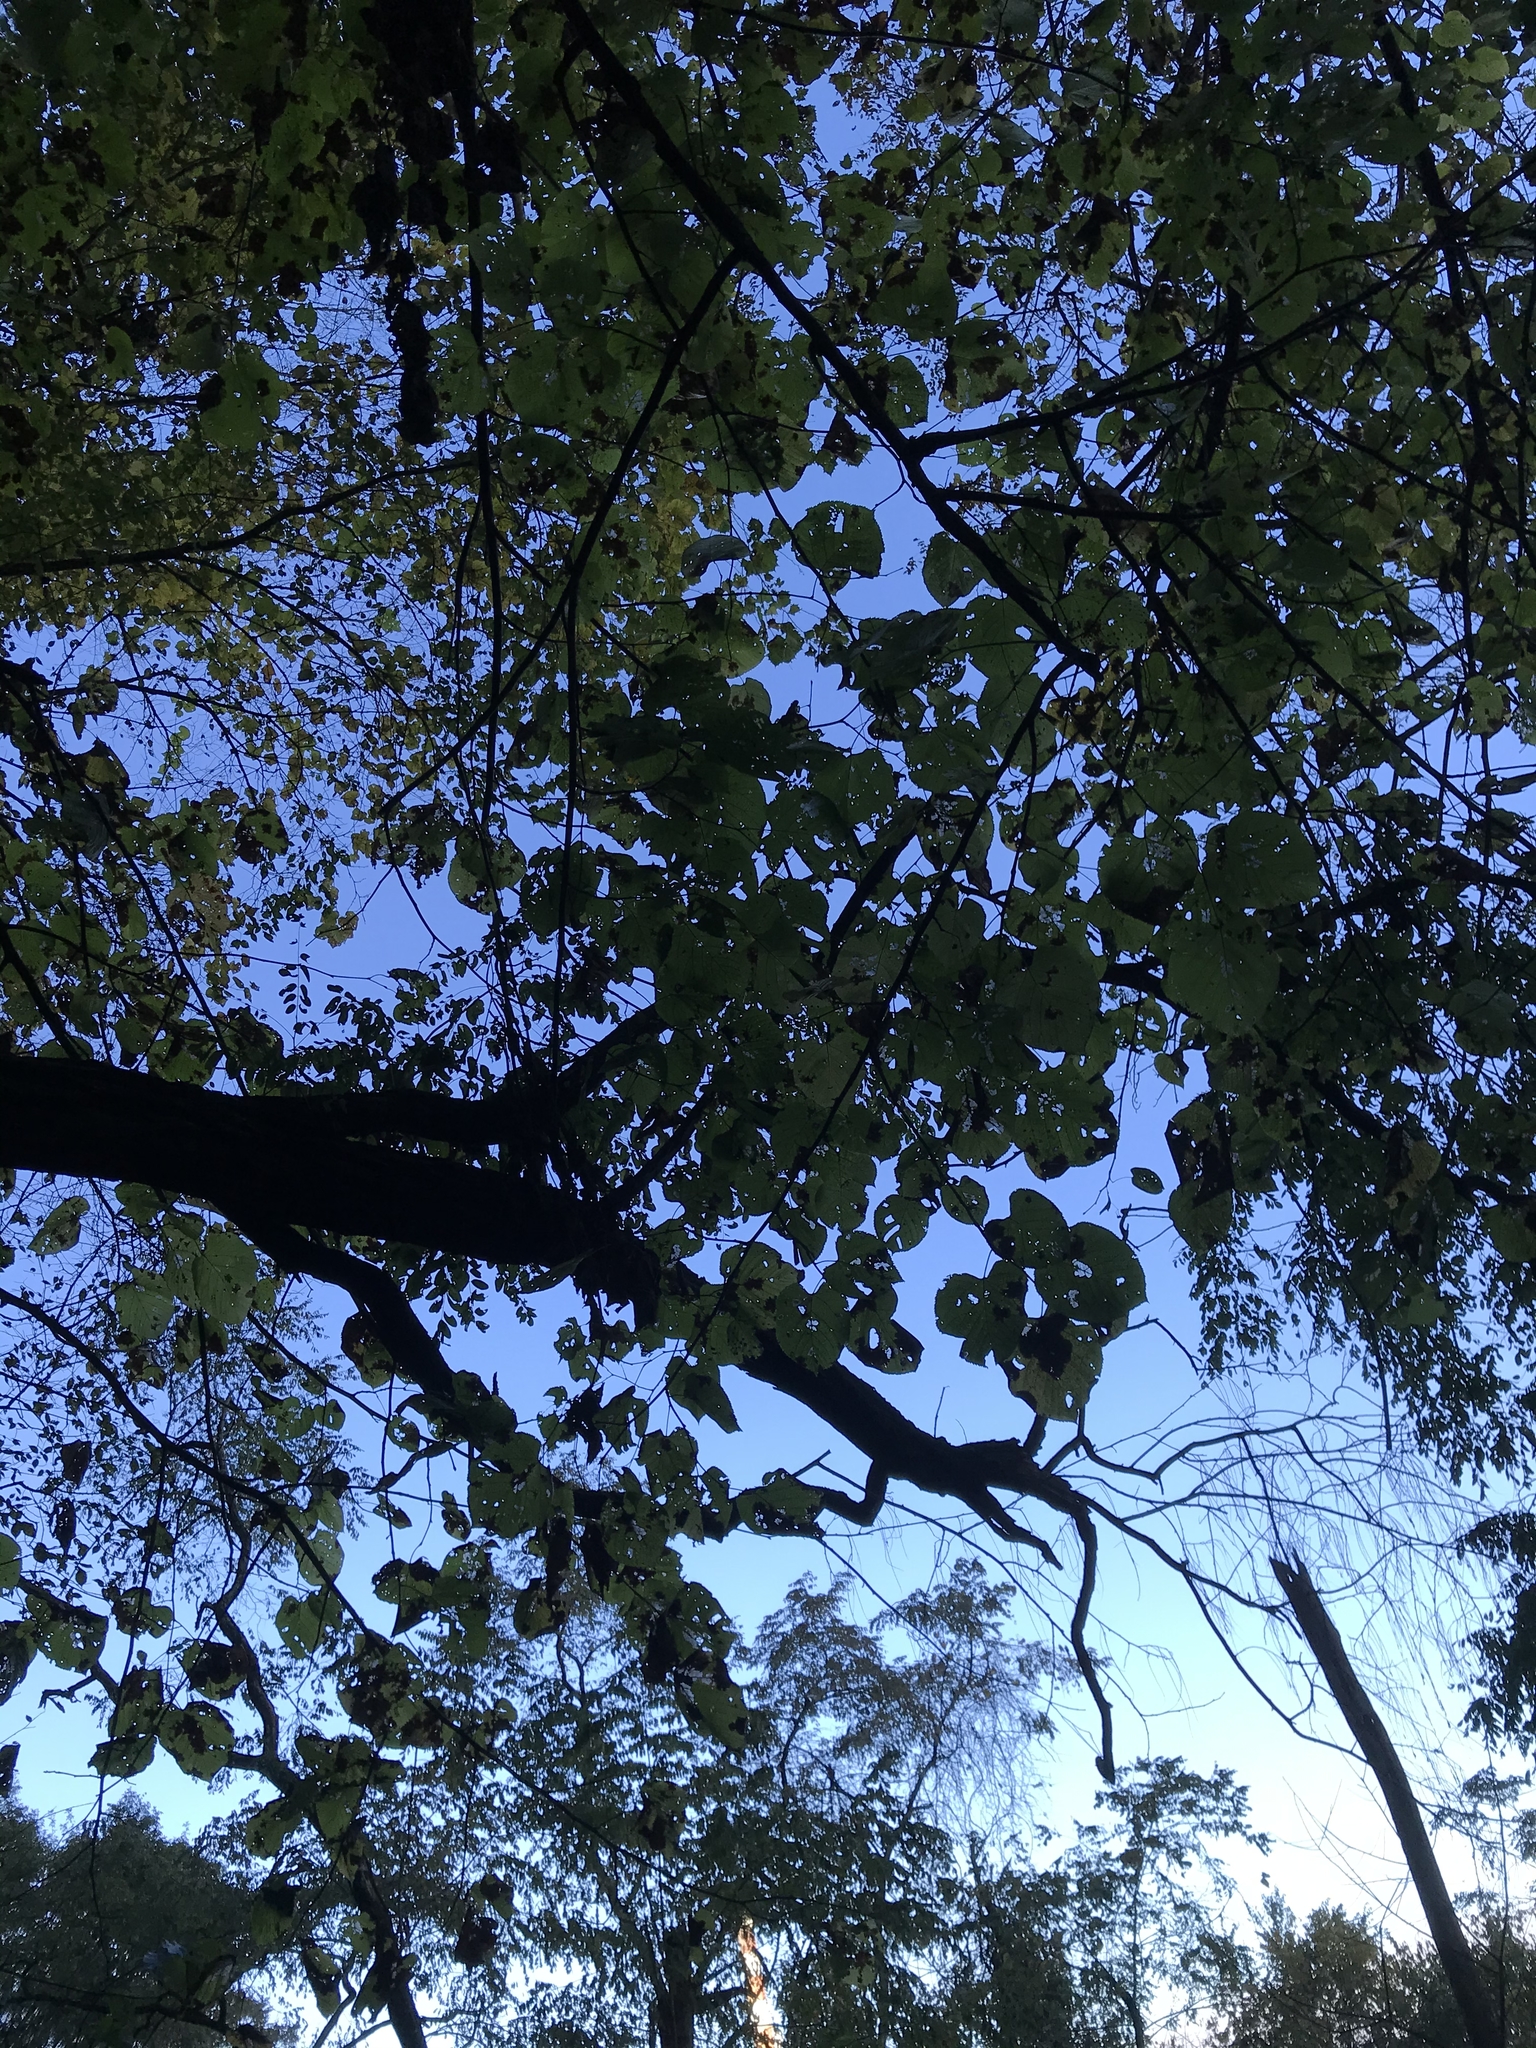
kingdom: Plantae
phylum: Tracheophyta
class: Magnoliopsida
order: Malvales
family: Malvaceae
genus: Tilia
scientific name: Tilia americana
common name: Basswood
